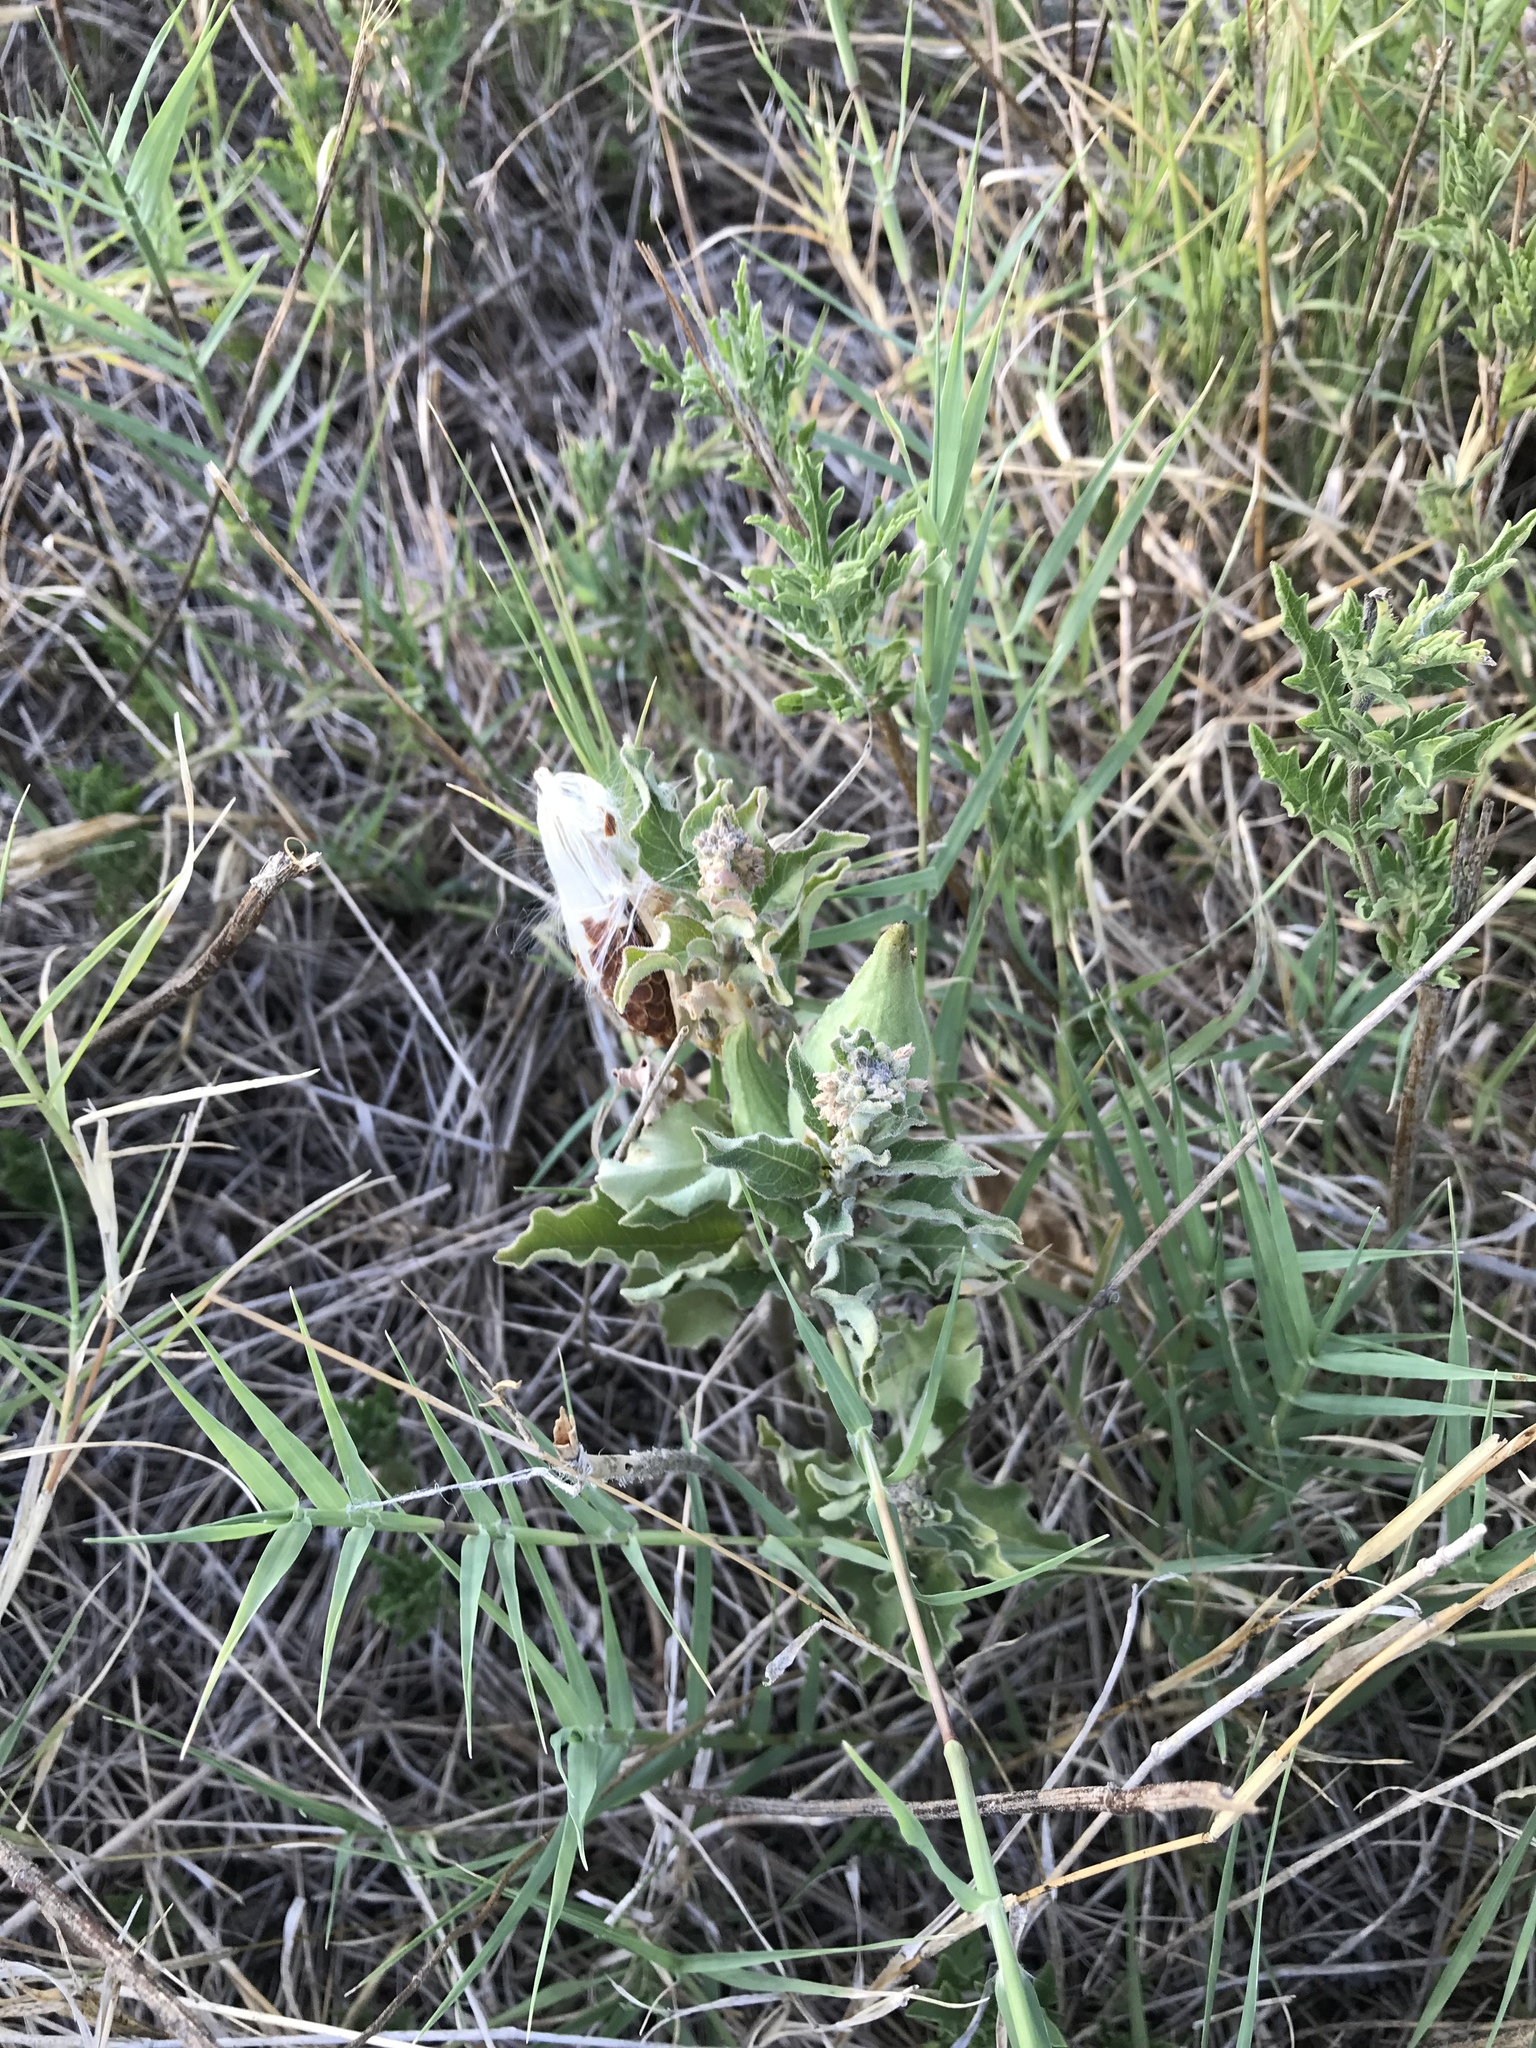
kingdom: Plantae
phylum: Tracheophyta
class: Magnoliopsida
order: Gentianales
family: Apocynaceae
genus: Asclepias
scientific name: Asclepias oenotheroides
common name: Zizotes milkweed
